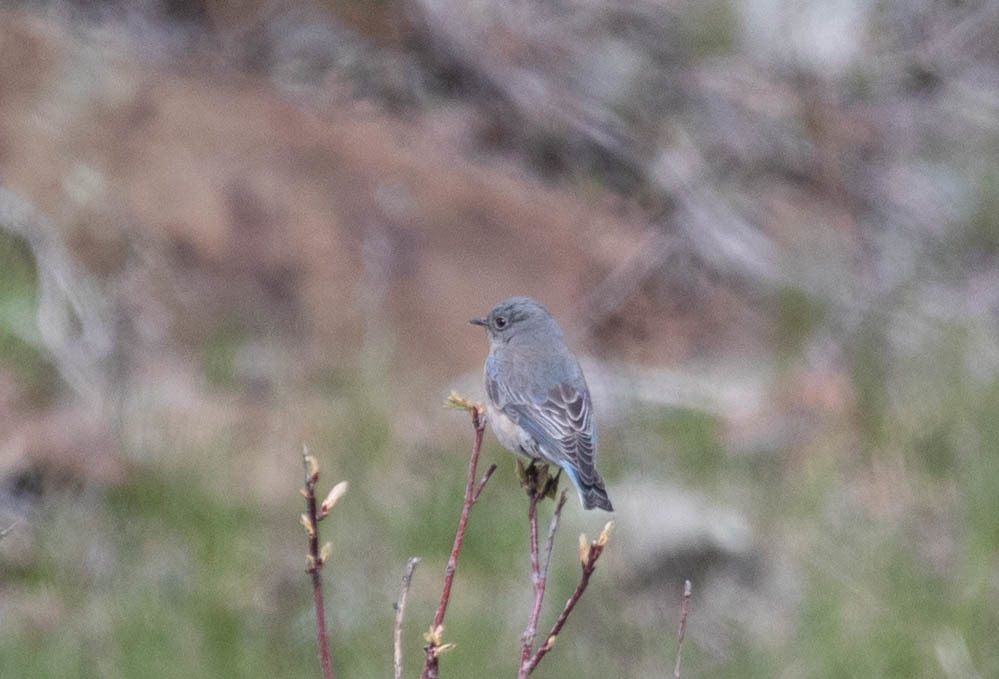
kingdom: Animalia
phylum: Chordata
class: Aves
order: Passeriformes
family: Turdidae
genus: Sialia
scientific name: Sialia mexicana
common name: Western bluebird
